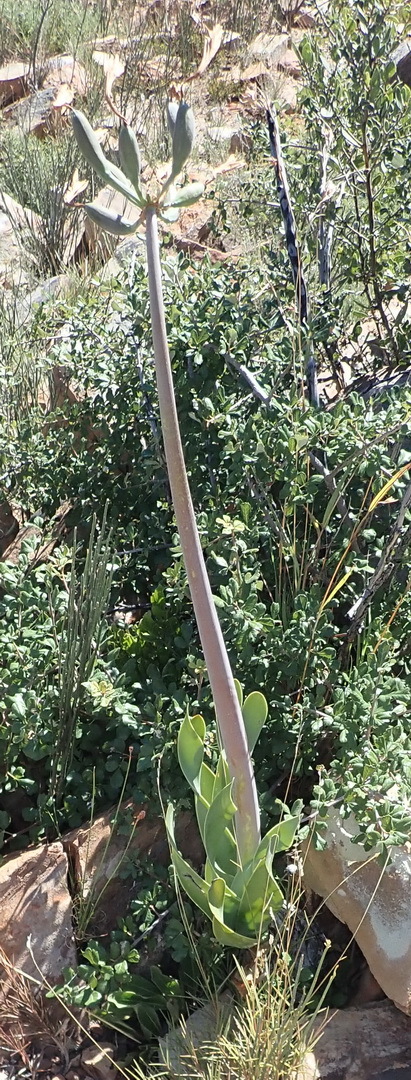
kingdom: Plantae
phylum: Tracheophyta
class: Liliopsida
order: Asparagales
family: Amaryllidaceae
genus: Cyrtanthus
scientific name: Cyrtanthus obliquus
